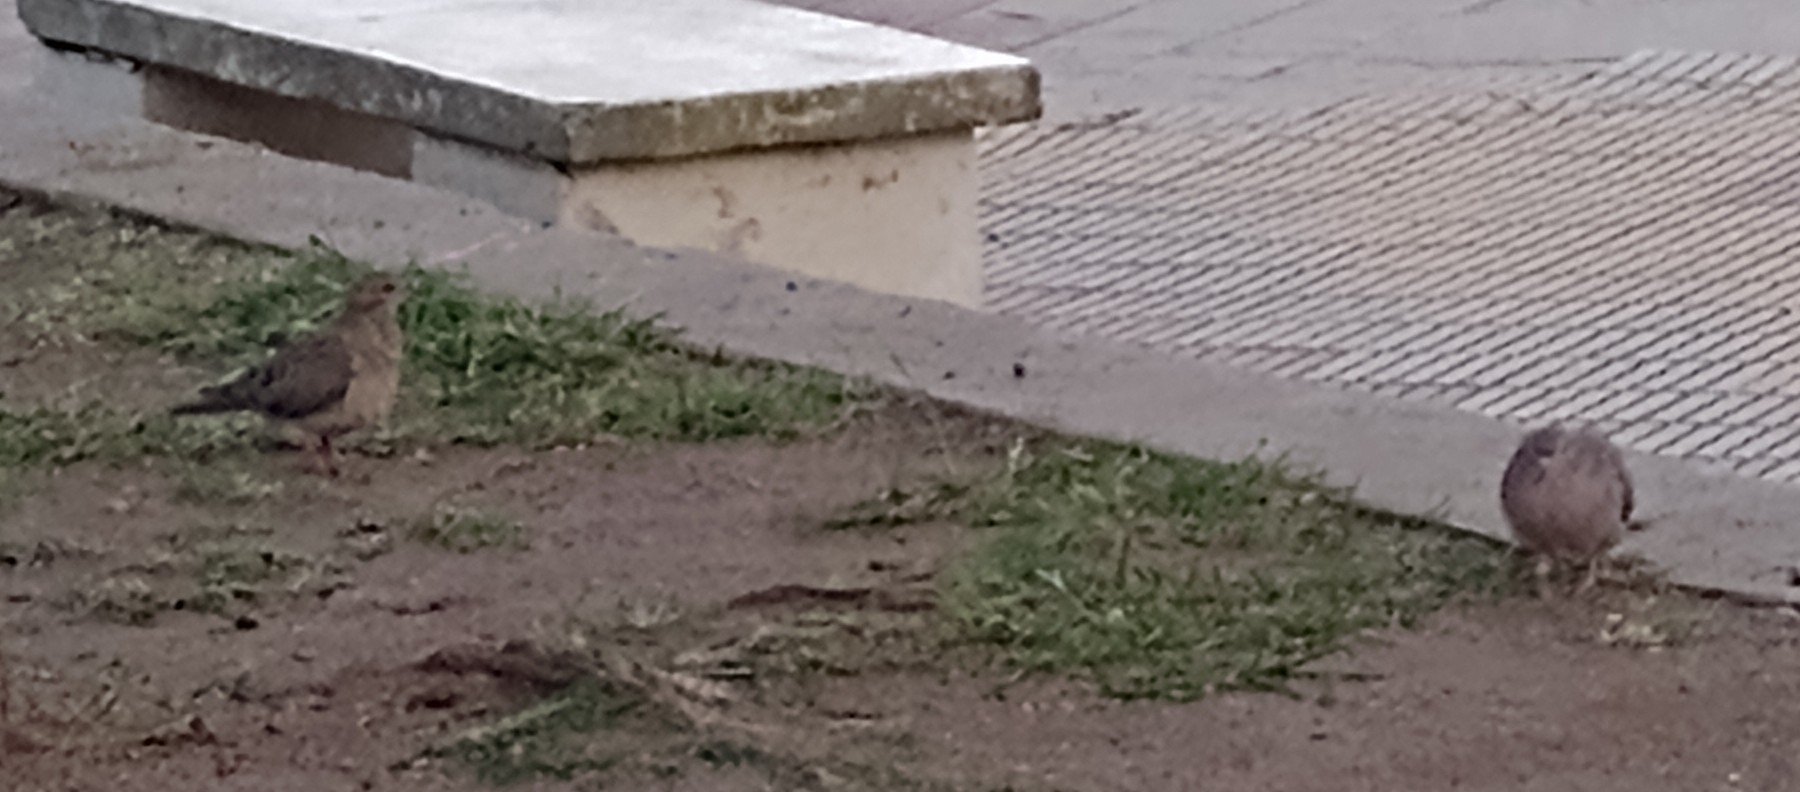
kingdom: Animalia
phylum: Chordata
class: Aves
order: Columbiformes
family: Columbidae
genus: Zenaida
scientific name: Zenaida auriculata
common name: Eared dove
